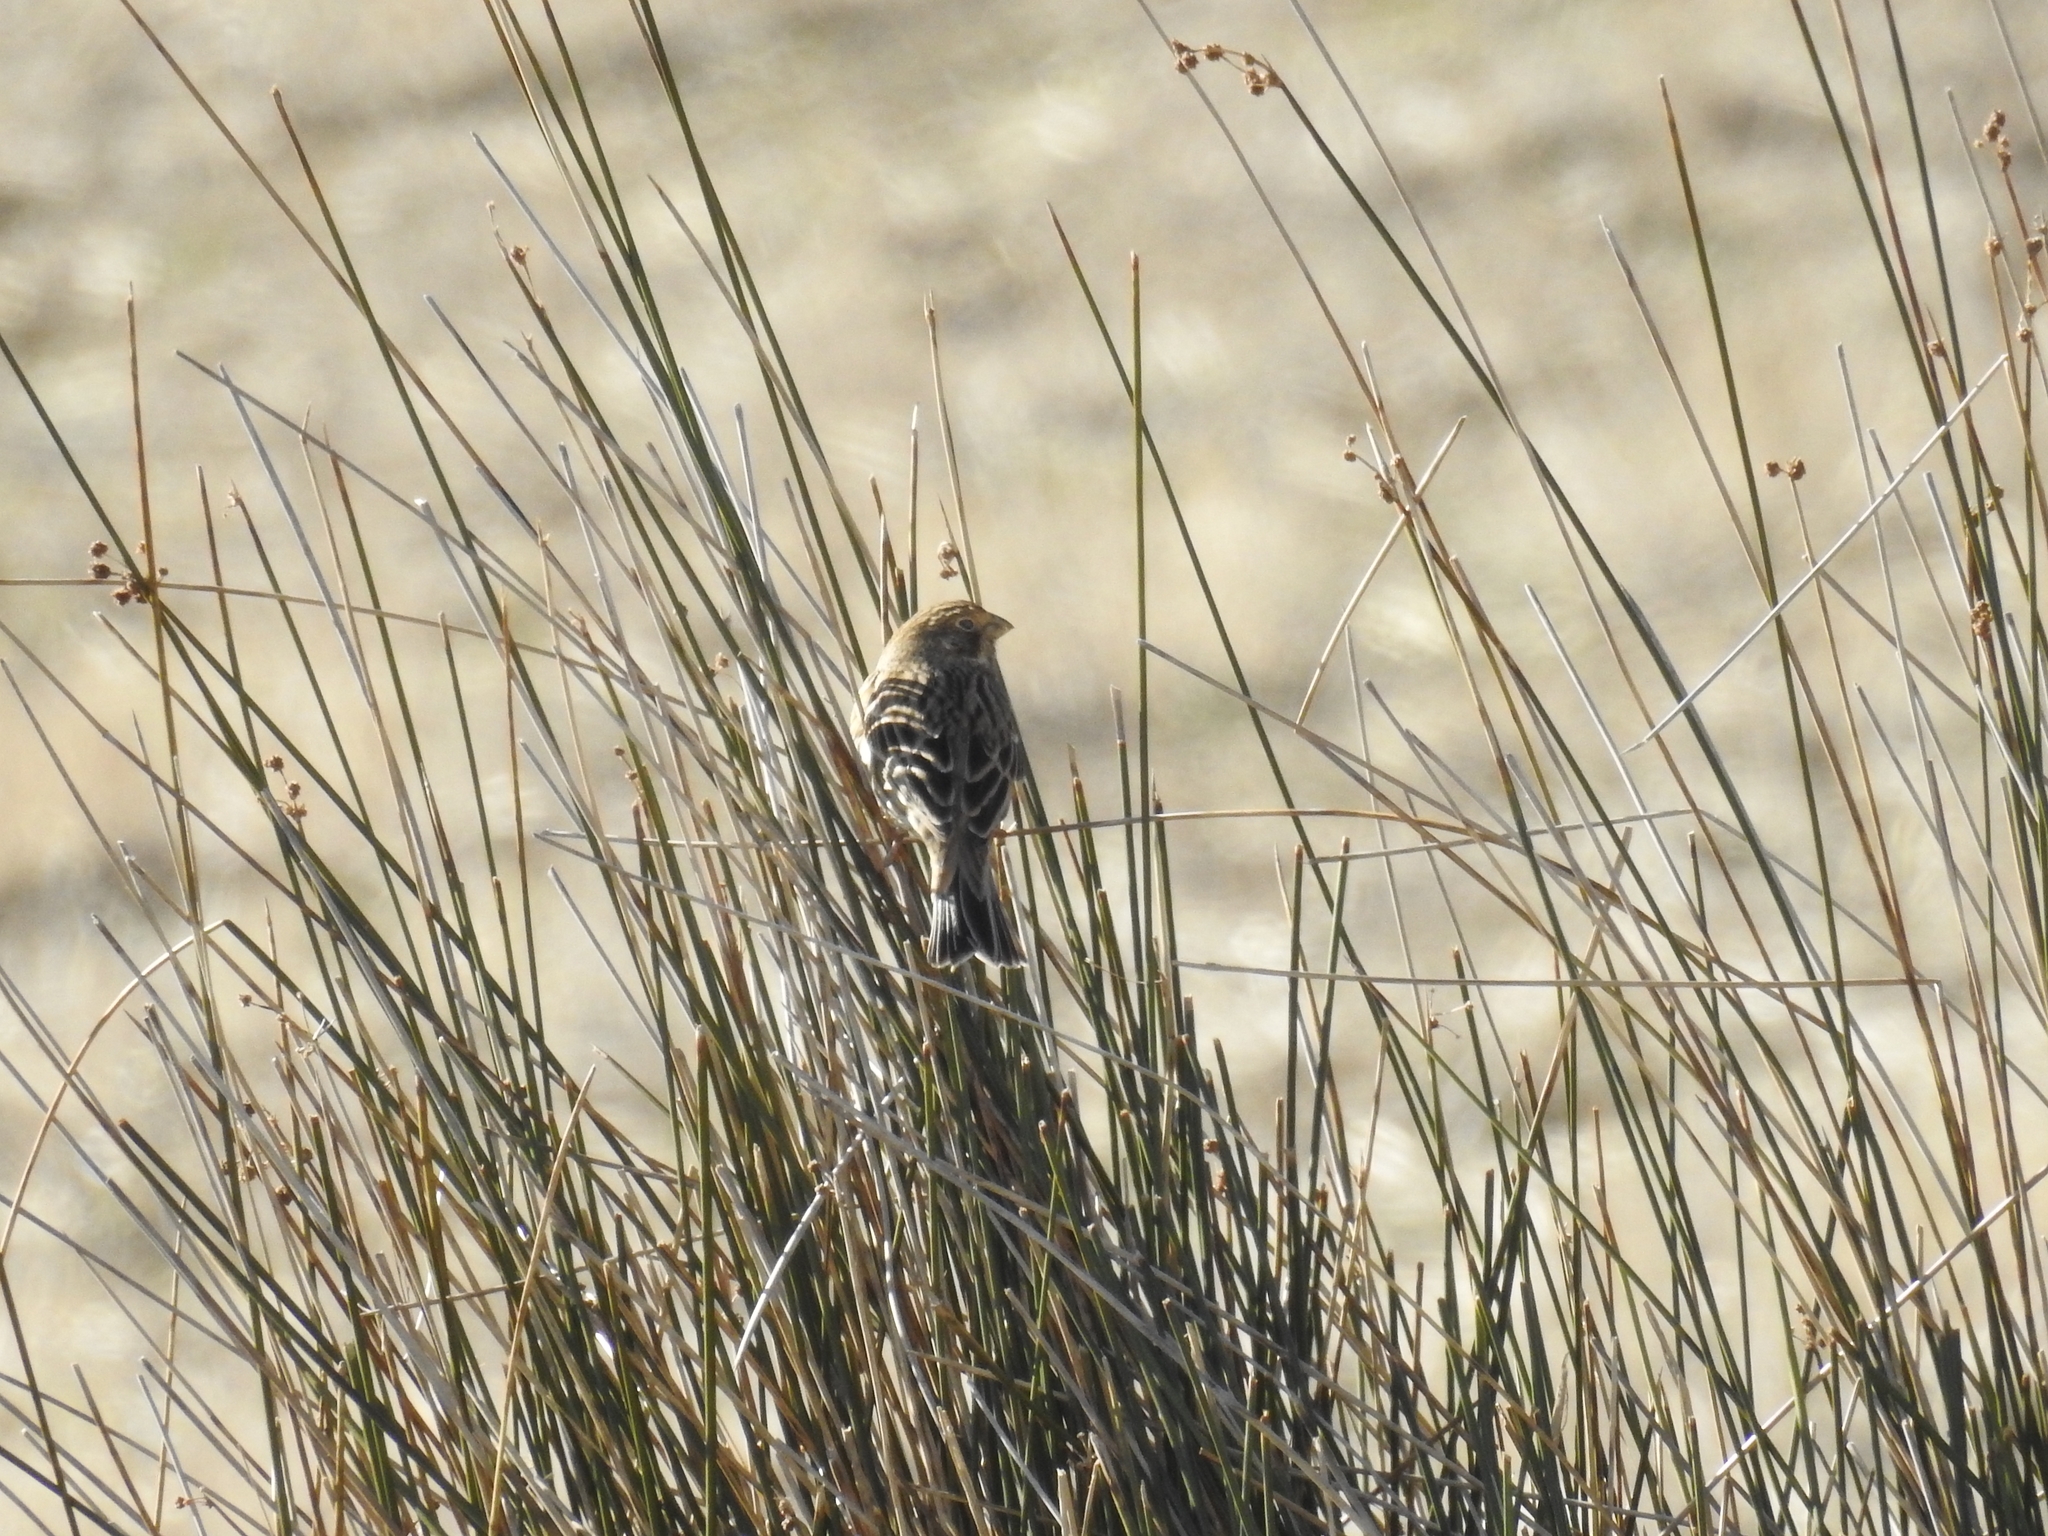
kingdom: Animalia
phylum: Chordata
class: Aves
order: Passeriformes
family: Emberizidae
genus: Emberiza
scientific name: Emberiza calandra
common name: Corn bunting
